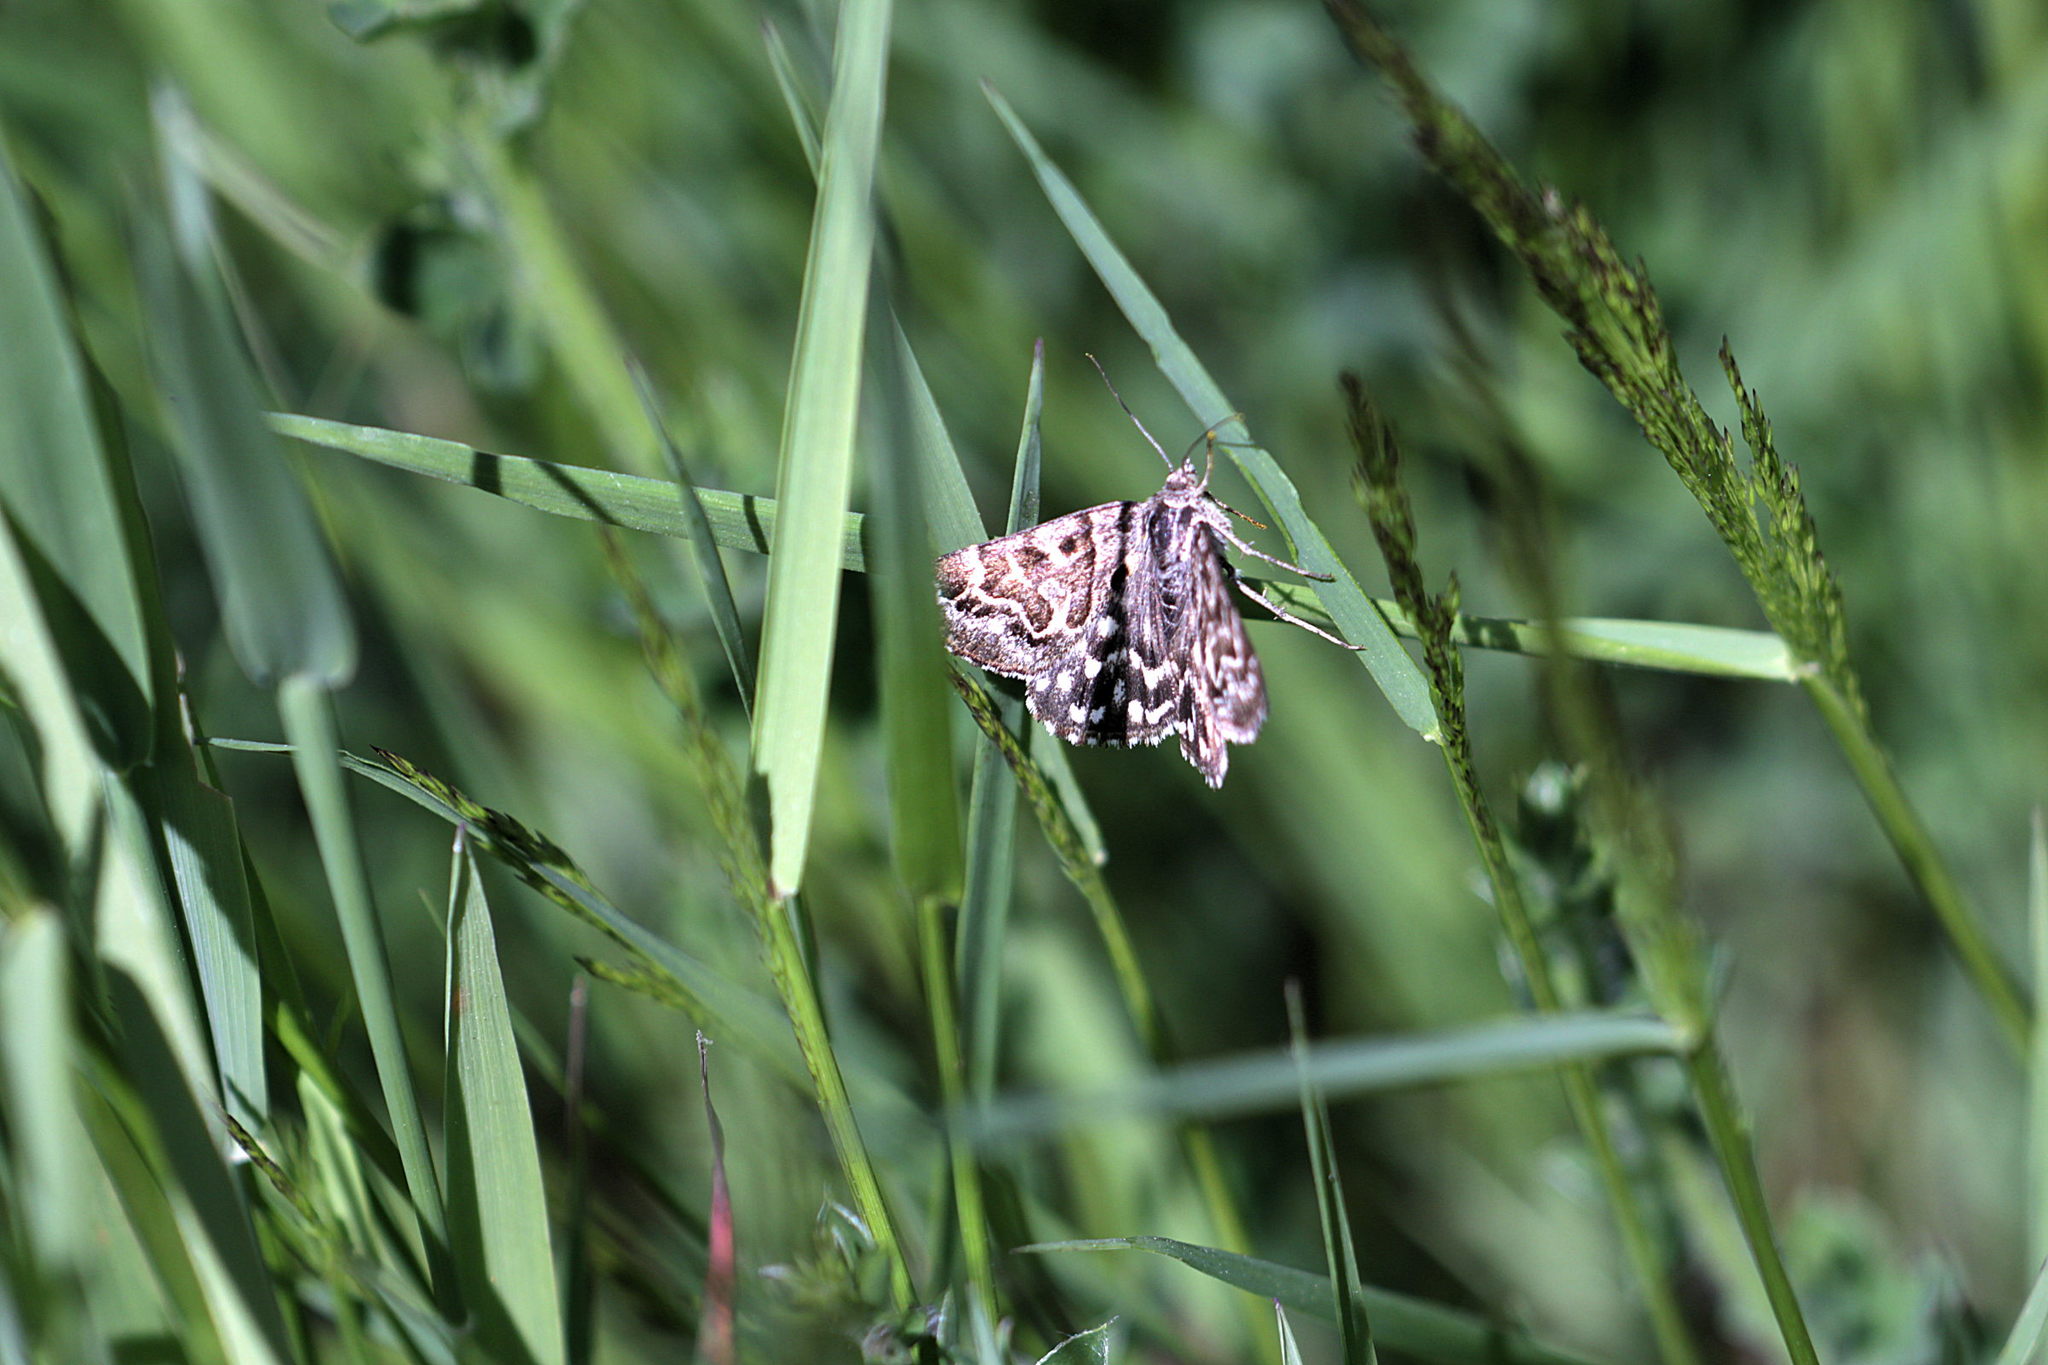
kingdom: Animalia
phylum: Arthropoda
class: Insecta
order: Lepidoptera
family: Erebidae
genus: Callistege
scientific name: Callistege mi
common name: Mother shipton
